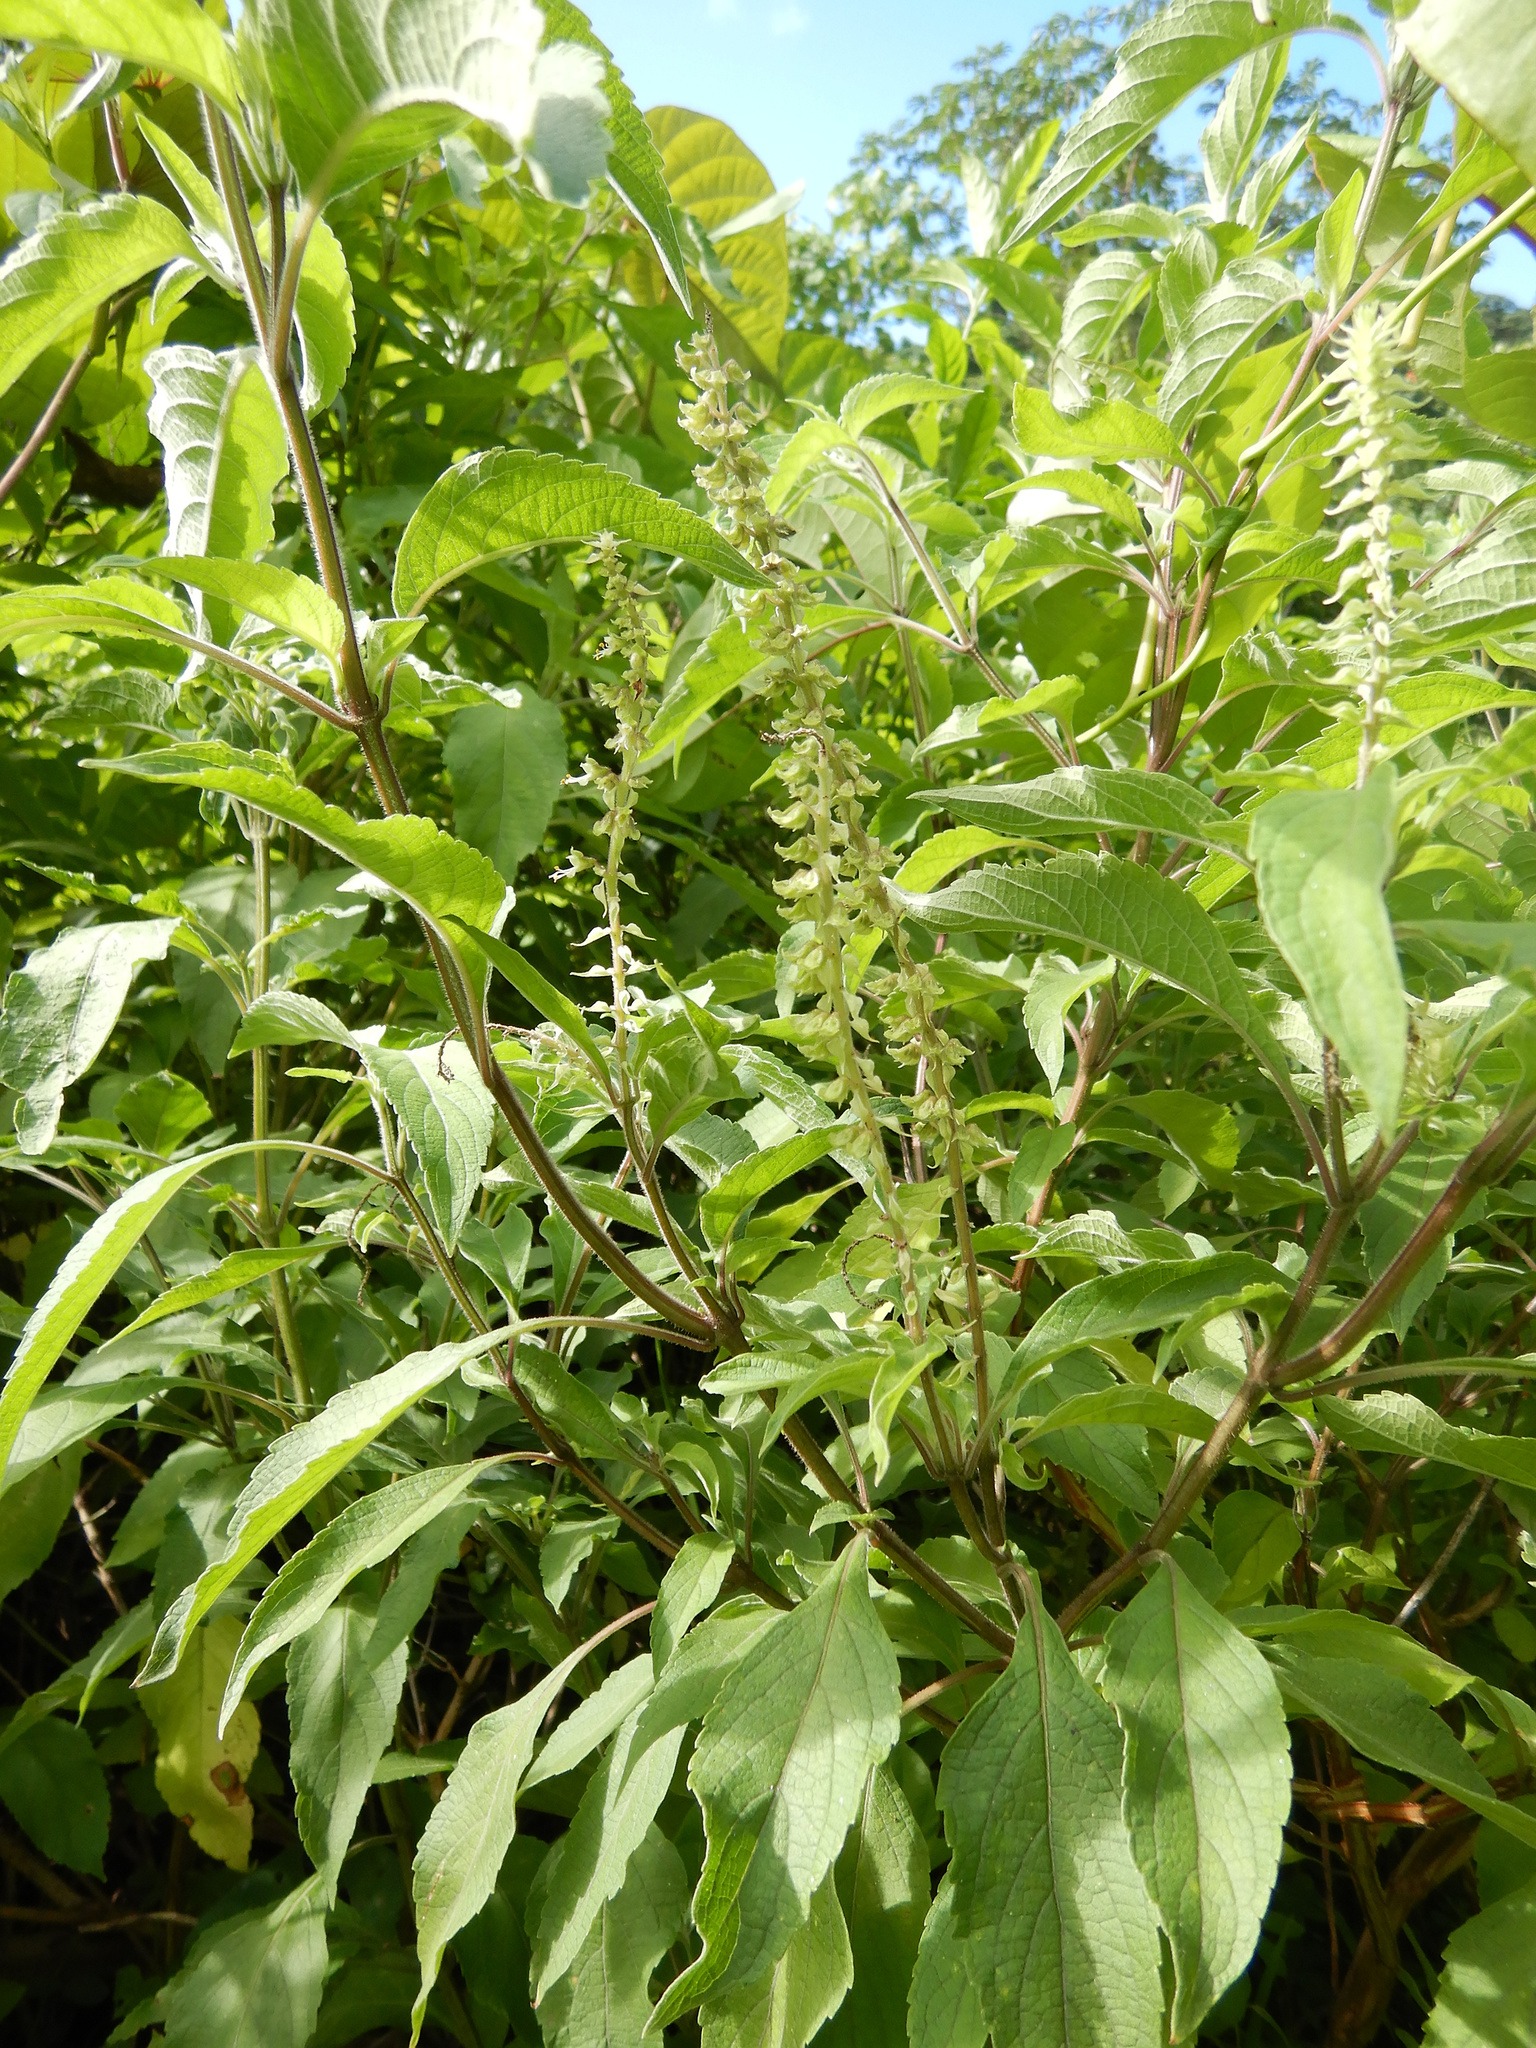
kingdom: Plantae
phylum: Tracheophyta
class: Magnoliopsida
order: Lamiales
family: Lamiaceae
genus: Ocimum
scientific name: Ocimum gratissimum
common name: African basil
